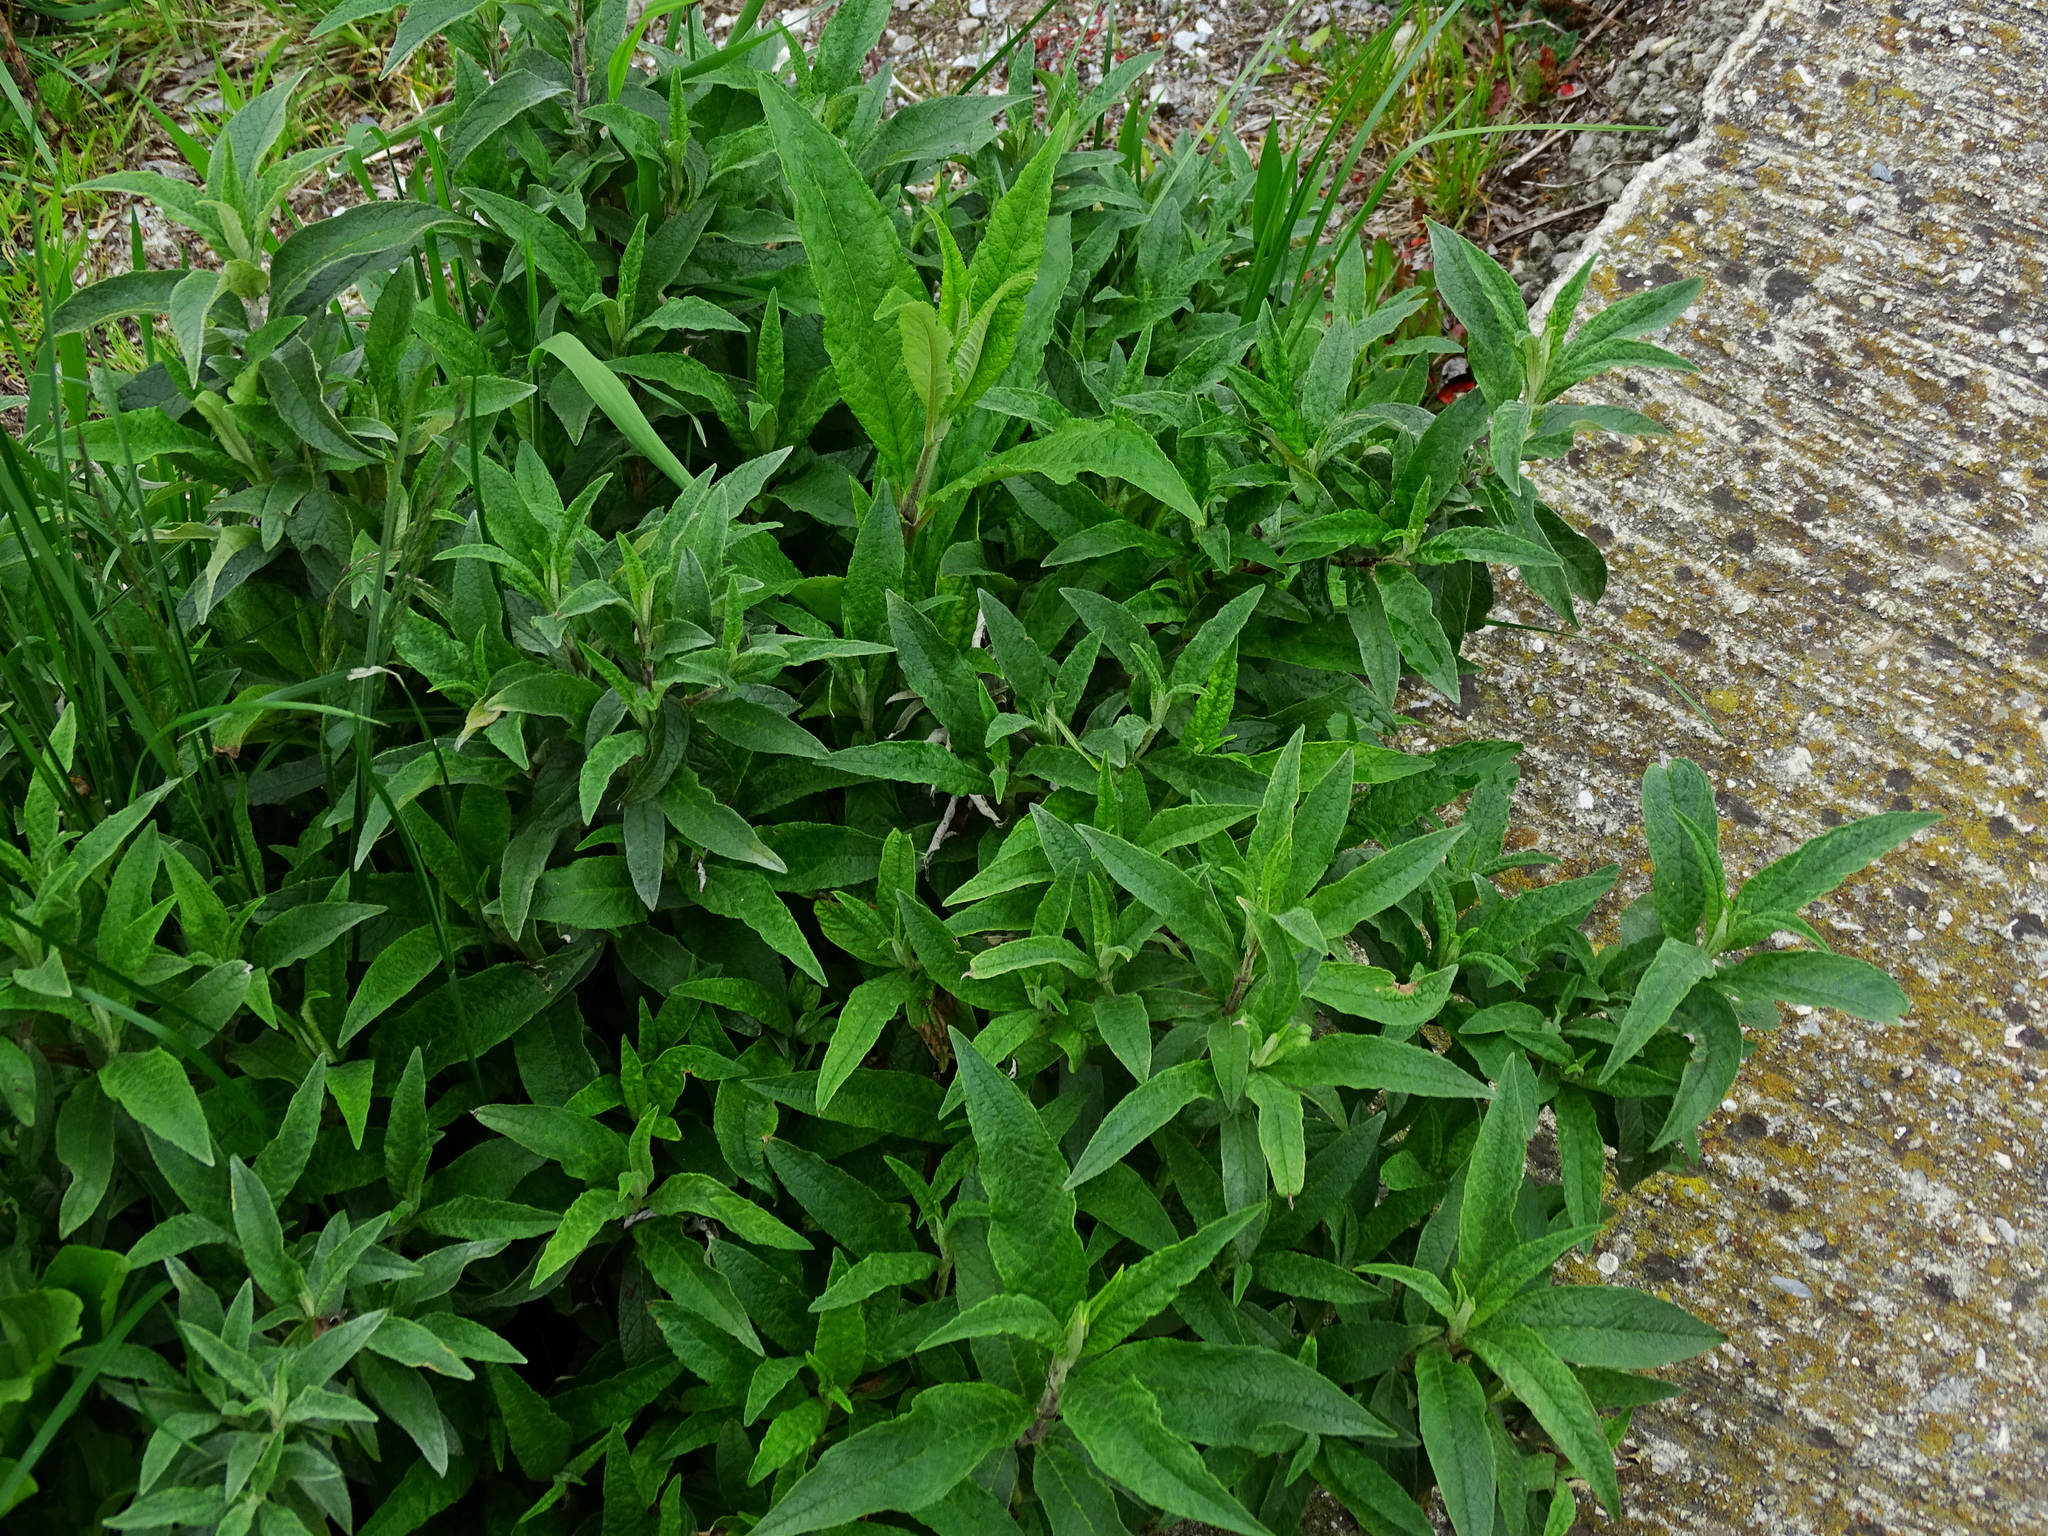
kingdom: Plantae
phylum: Tracheophyta
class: Magnoliopsida
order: Lamiales
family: Scrophulariaceae
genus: Buddleja
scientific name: Buddleja davidii
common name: Butterfly-bush
